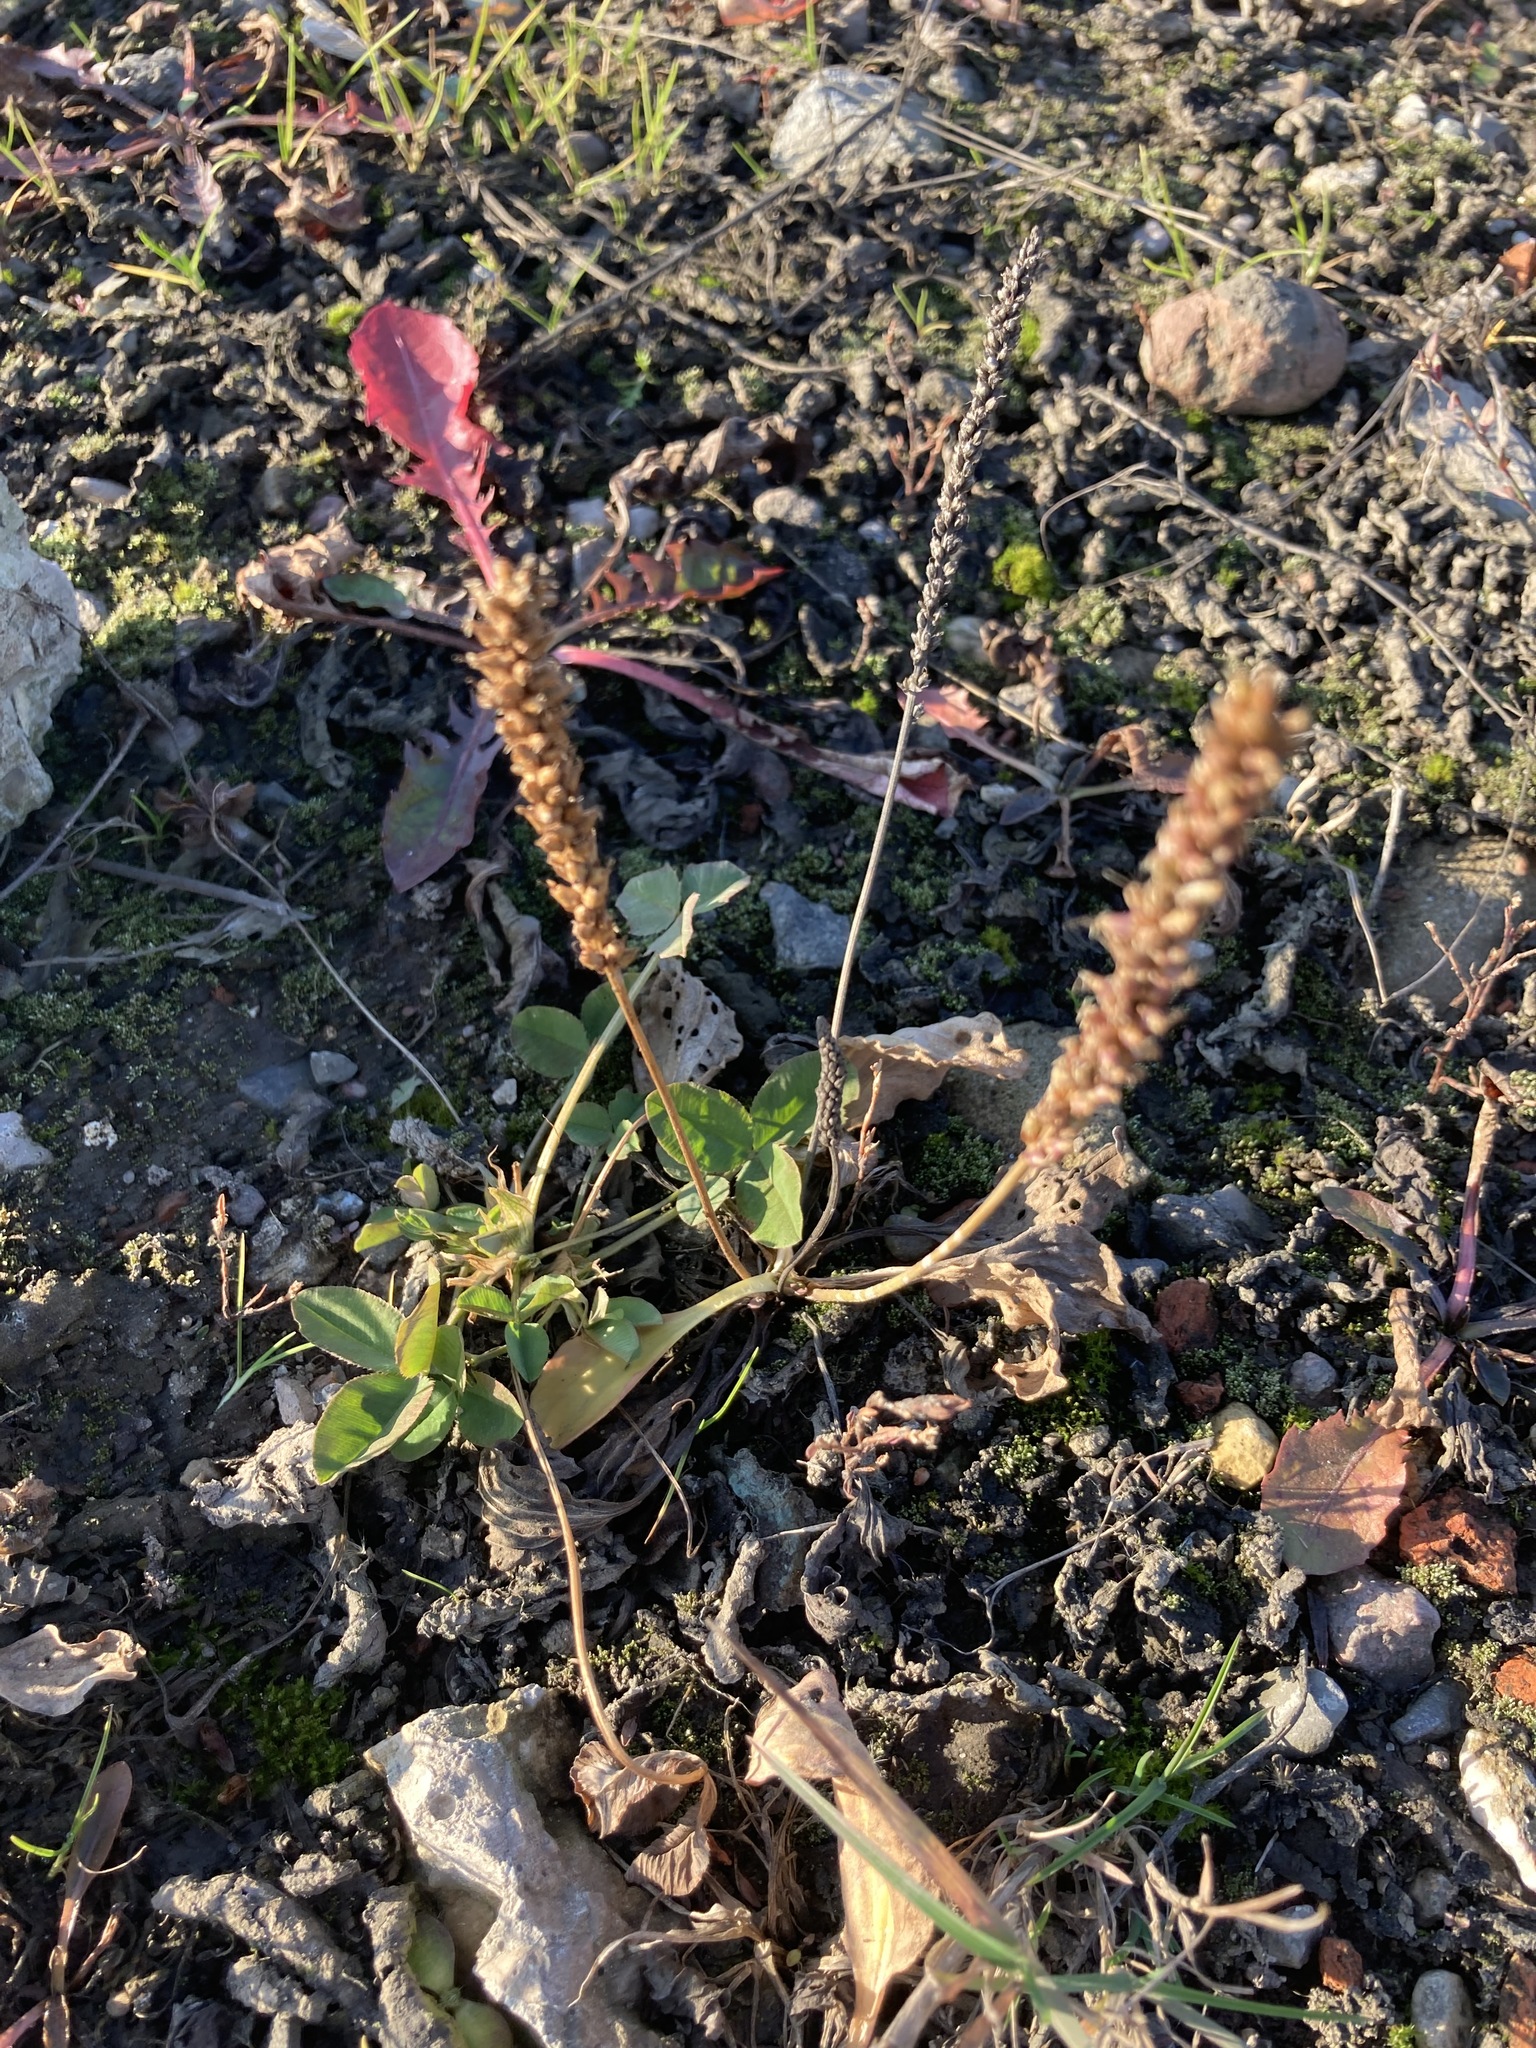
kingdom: Plantae
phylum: Tracheophyta
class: Magnoliopsida
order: Lamiales
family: Plantaginaceae
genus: Plantago
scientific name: Plantago major
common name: Common plantain
